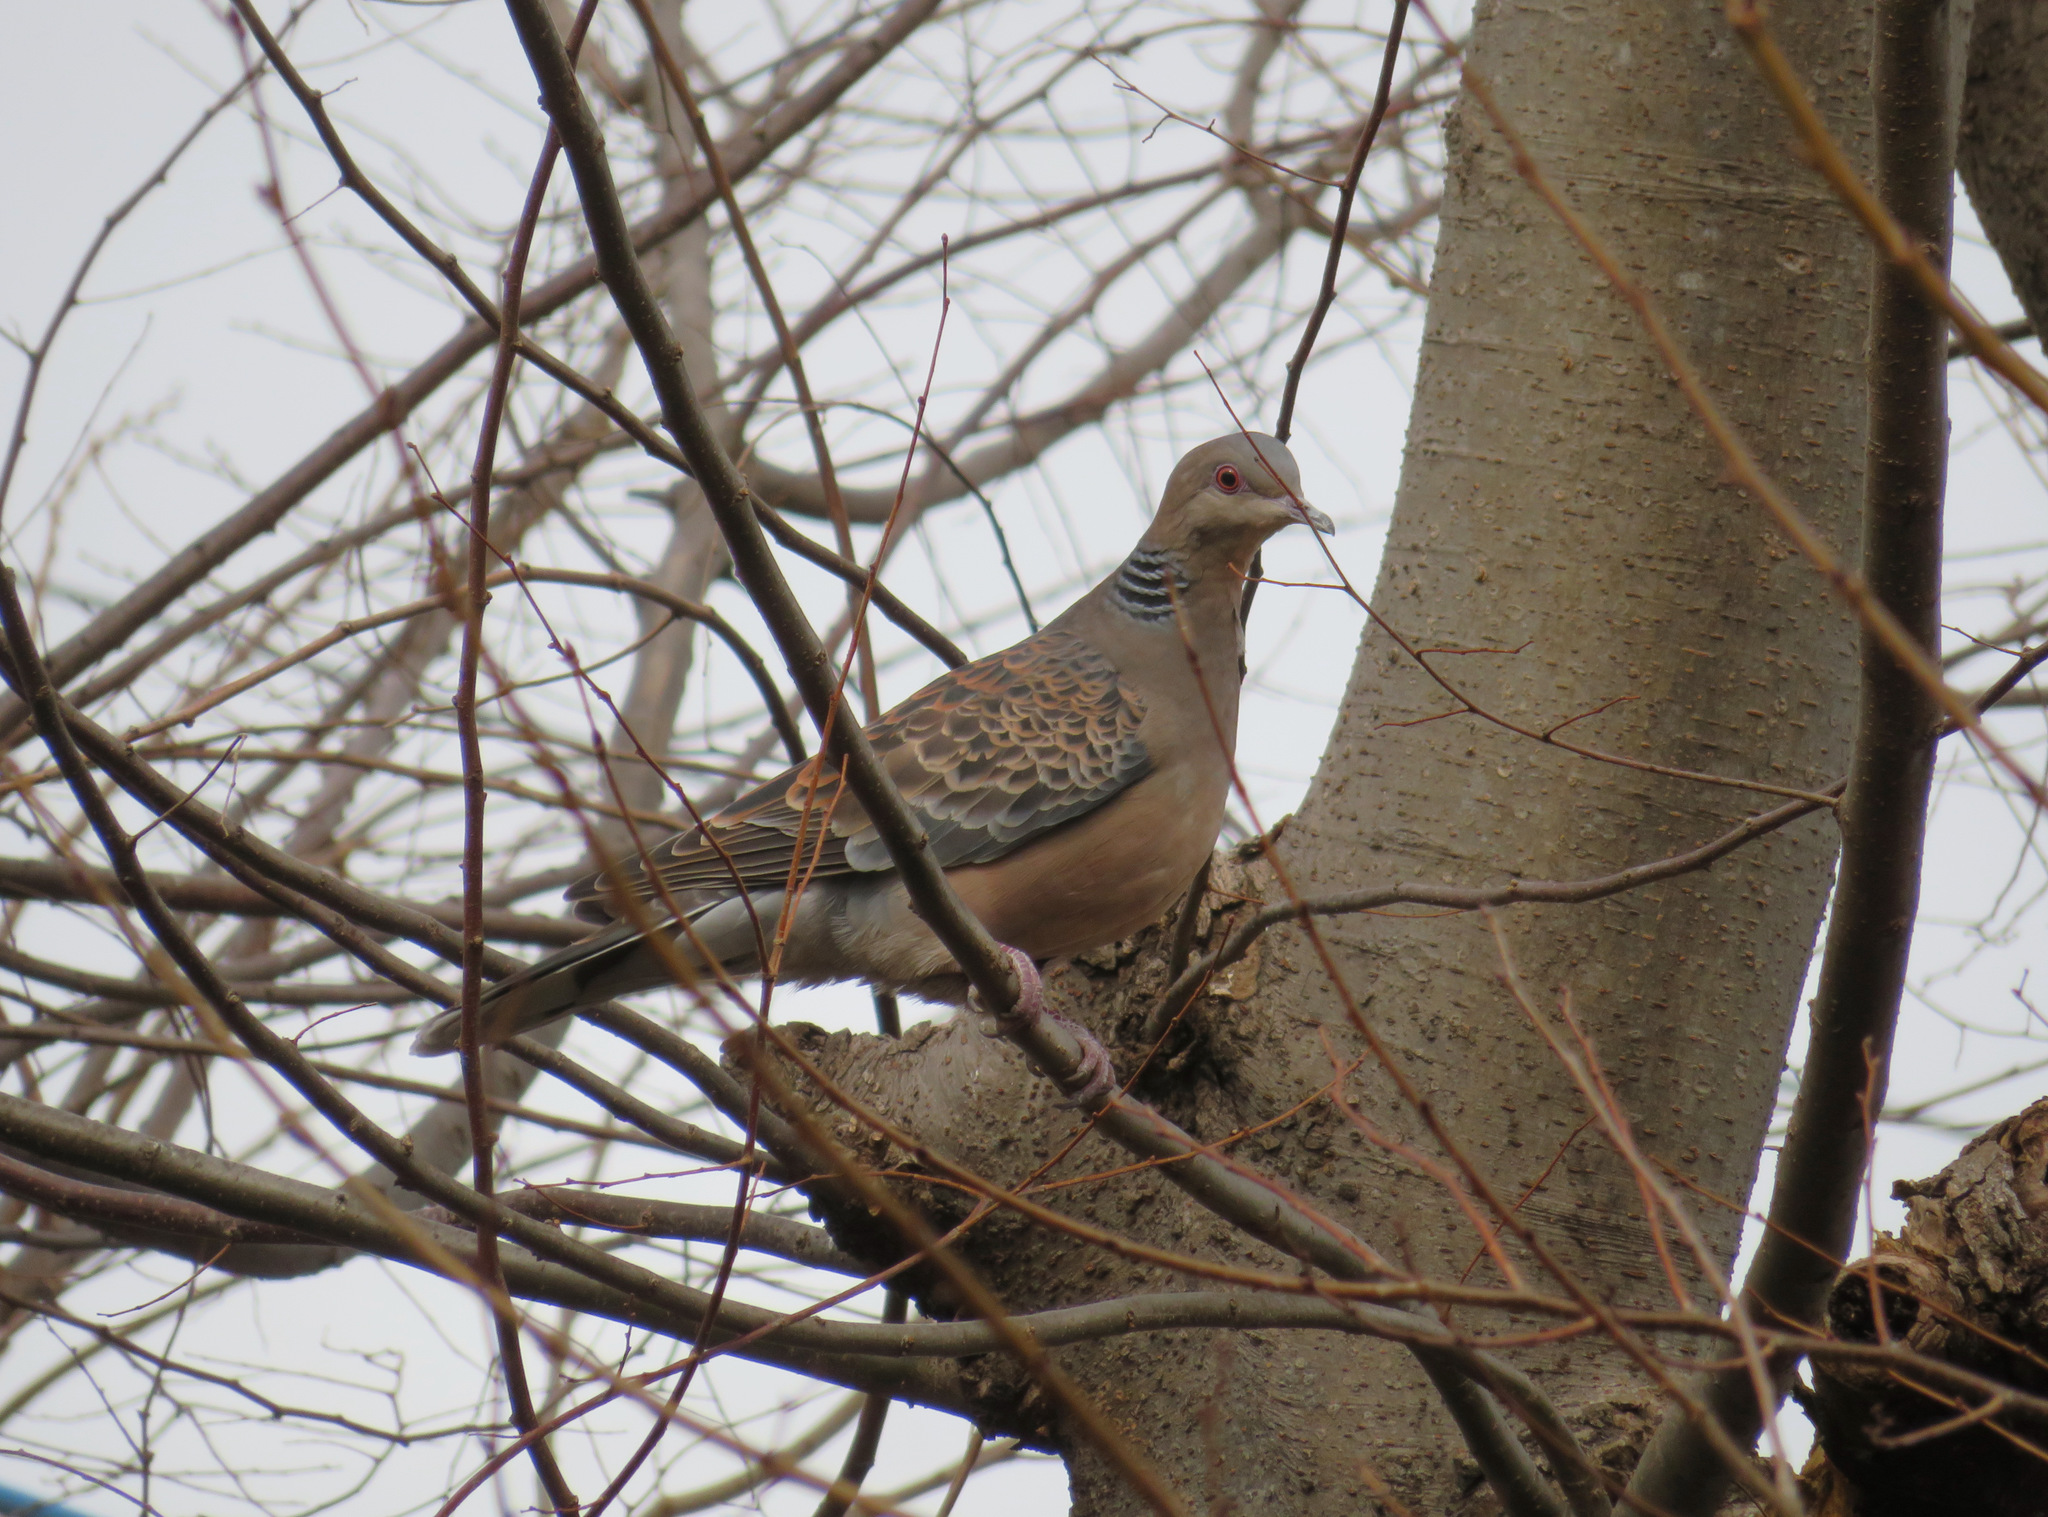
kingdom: Animalia
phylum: Chordata
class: Aves
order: Columbiformes
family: Columbidae
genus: Streptopelia
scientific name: Streptopelia orientalis
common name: Oriental turtle dove
